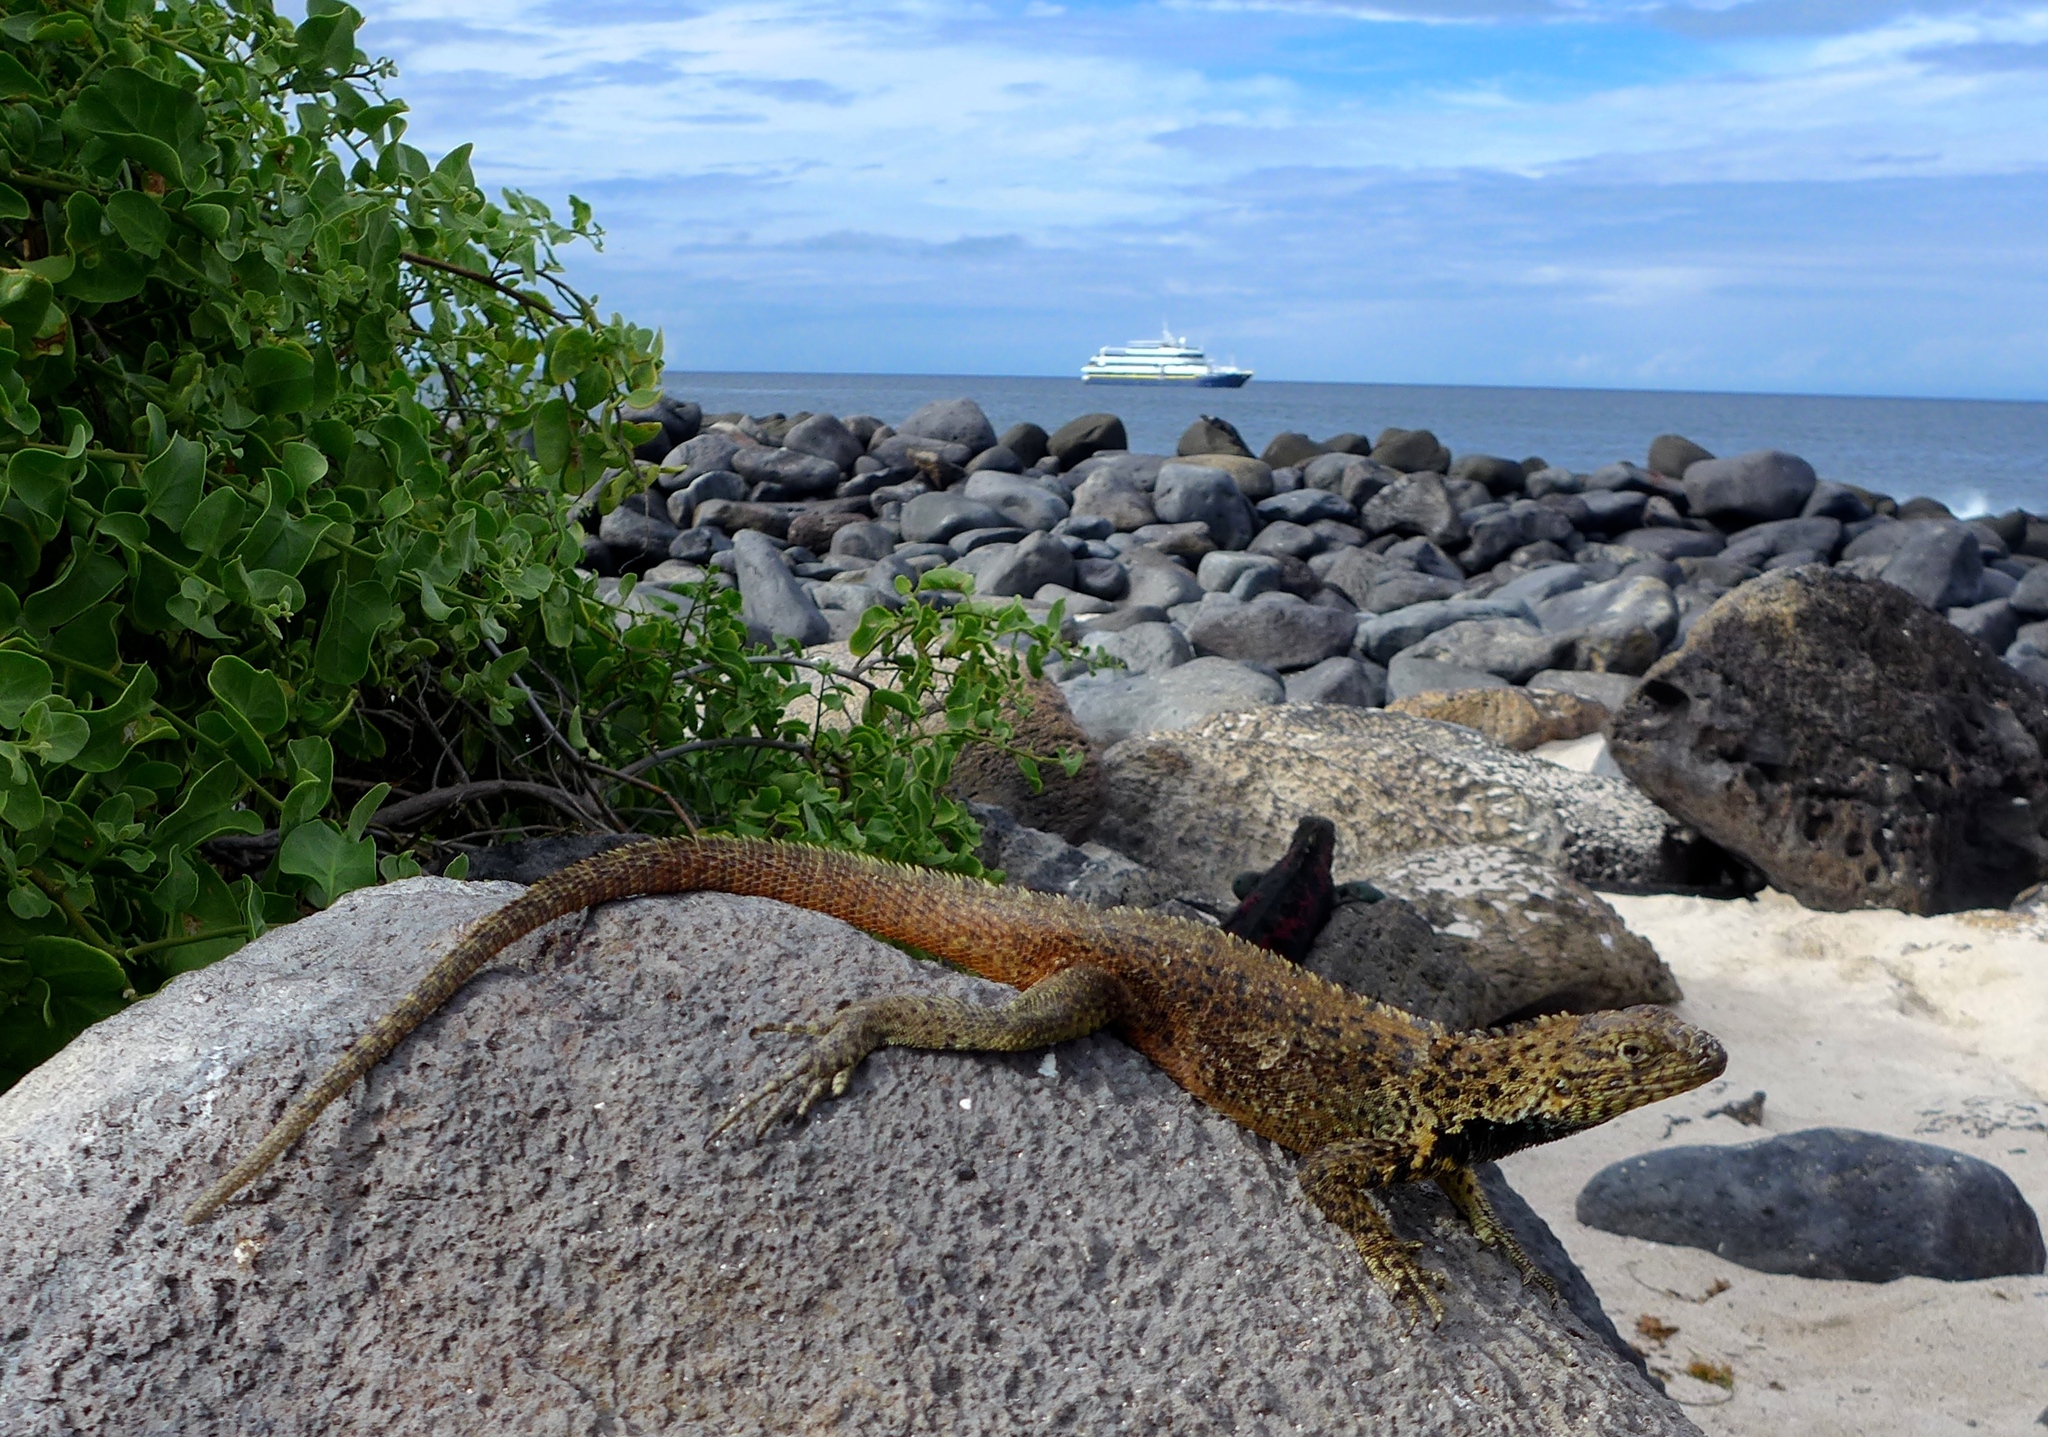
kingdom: Animalia
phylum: Chordata
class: Squamata
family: Tropiduridae
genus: Microlophus
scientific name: Microlophus delanonis
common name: Hood lava lizard
